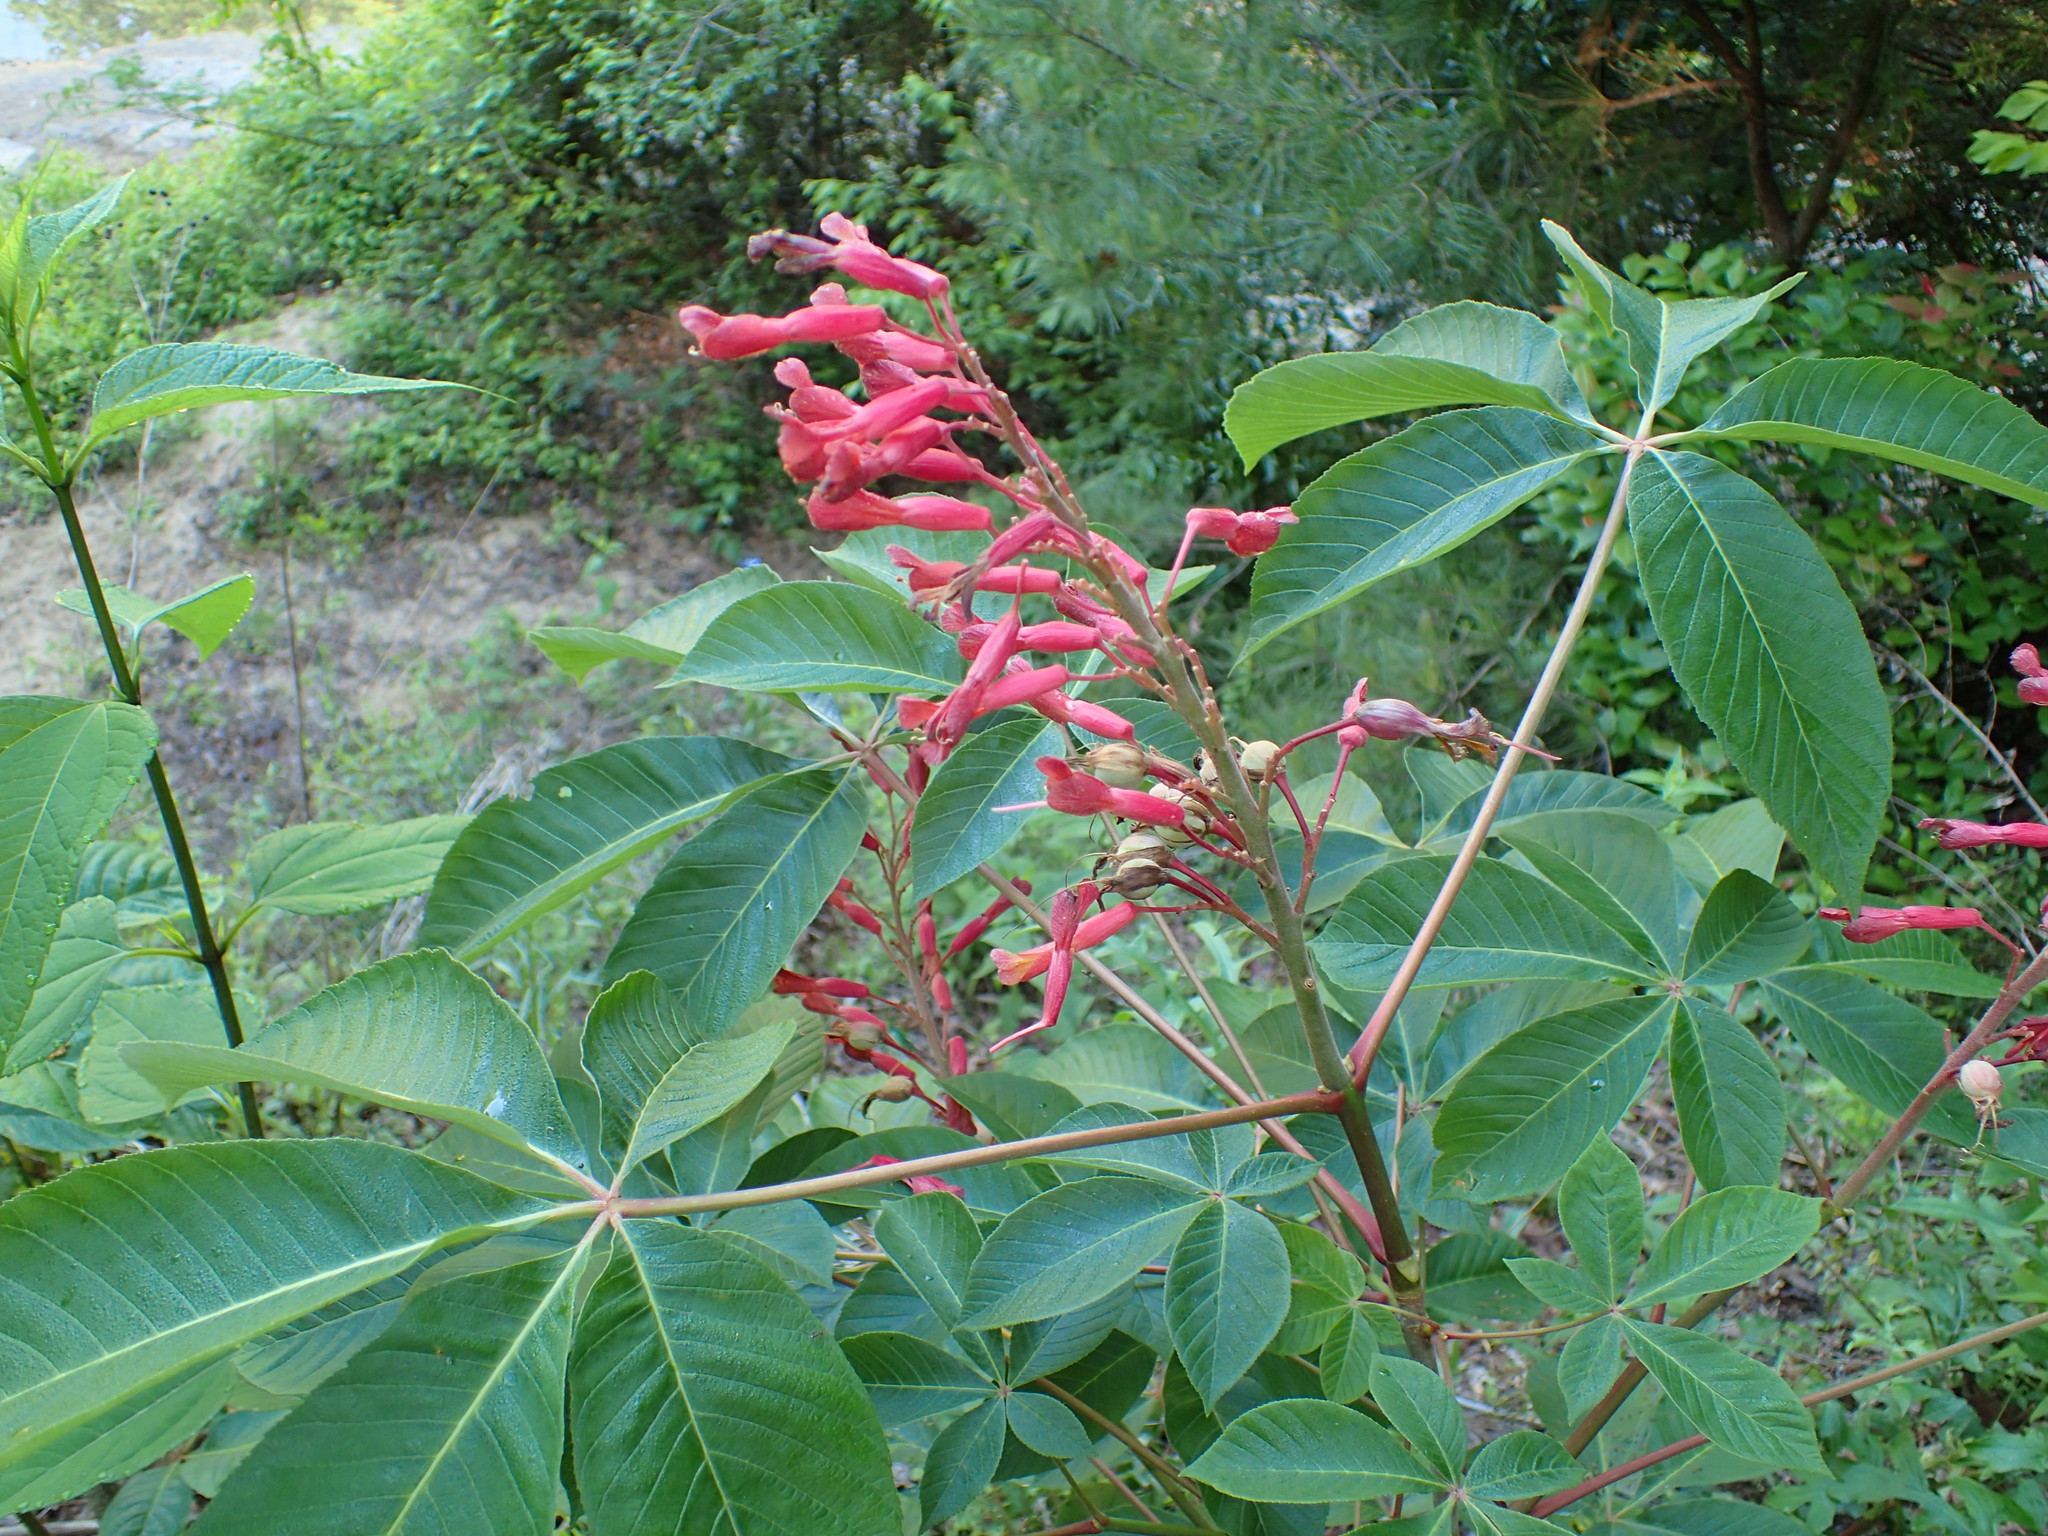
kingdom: Plantae
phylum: Tracheophyta
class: Magnoliopsida
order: Sapindales
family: Sapindaceae
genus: Aesculus
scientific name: Aesculus pavia
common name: Red buckeye
